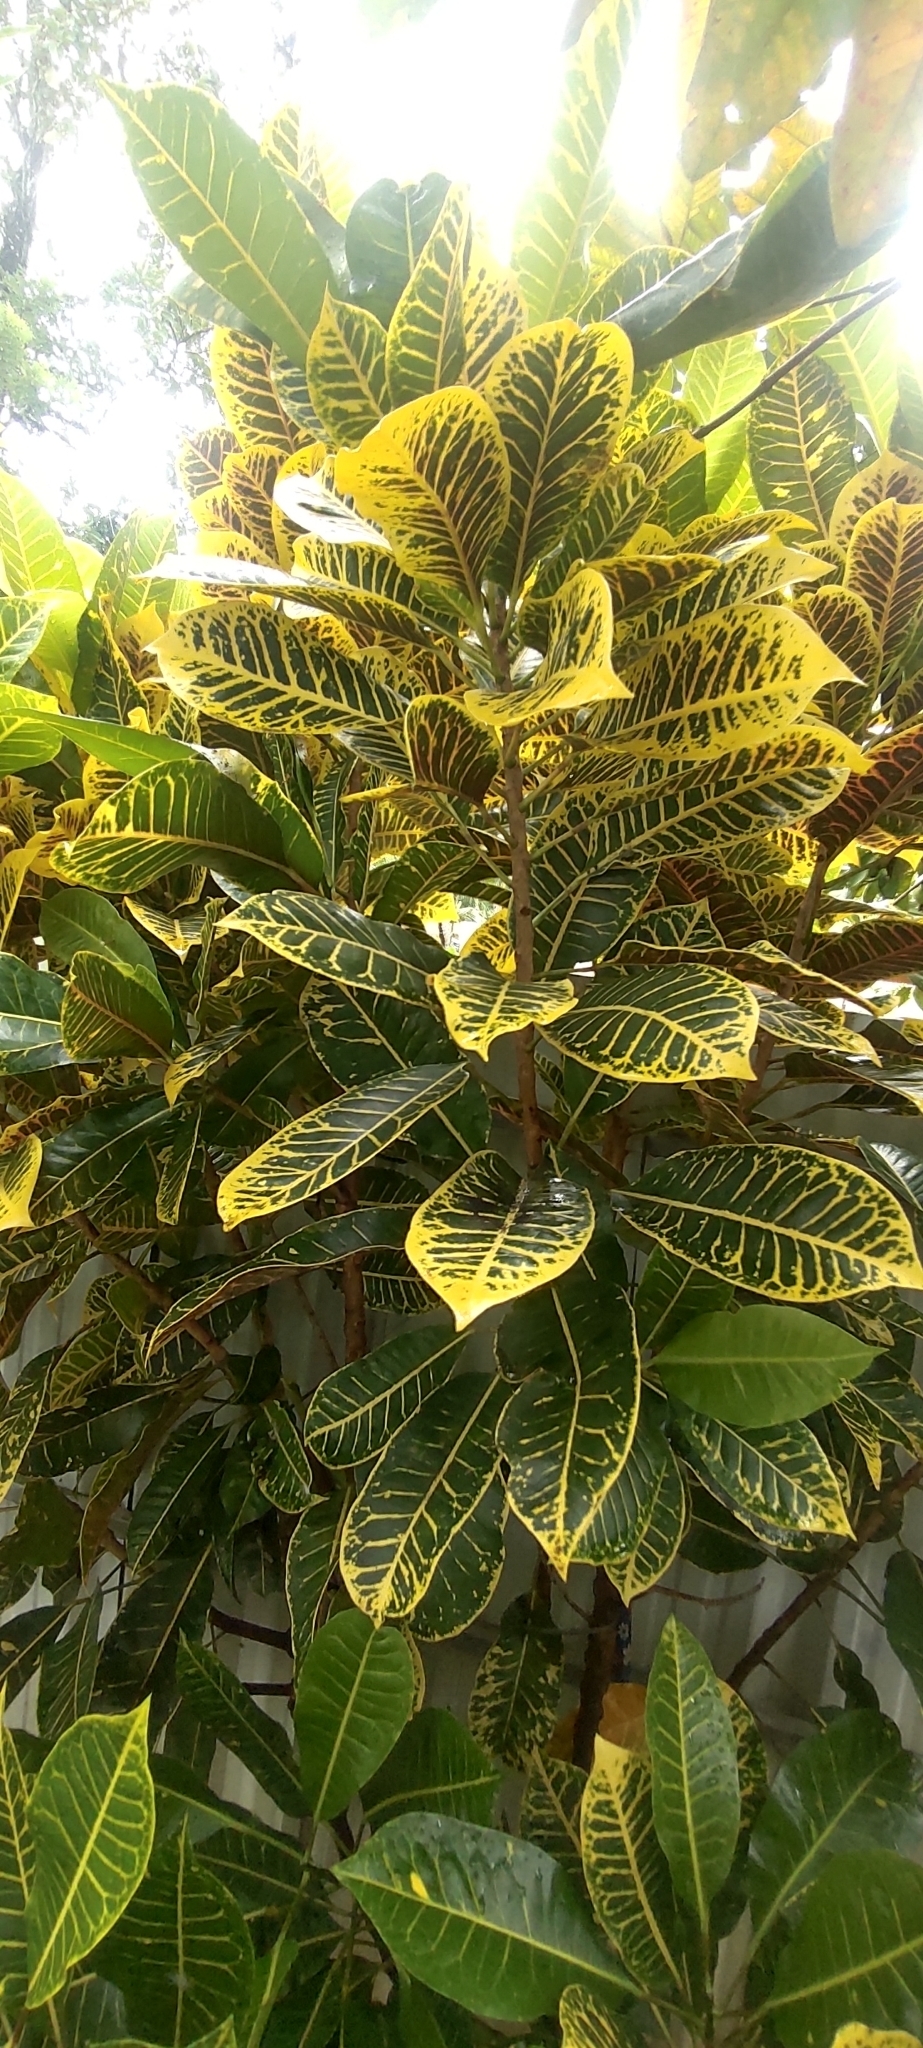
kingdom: Plantae
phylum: Tracheophyta
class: Magnoliopsida
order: Malpighiales
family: Euphorbiaceae
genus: Codiaeum
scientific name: Codiaeum variegatum
